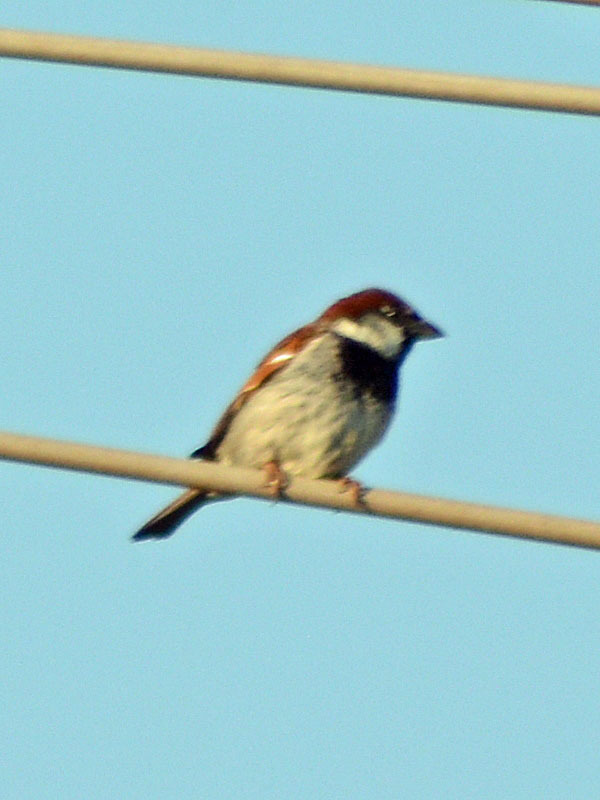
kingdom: Animalia
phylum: Chordata
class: Aves
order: Passeriformes
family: Passeridae
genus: Passer
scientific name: Passer domesticus
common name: House sparrow
